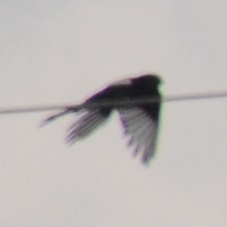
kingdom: Animalia
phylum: Chordata
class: Aves
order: Passeriformes
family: Corvidae
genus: Pica
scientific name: Pica pica
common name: Eurasian magpie
